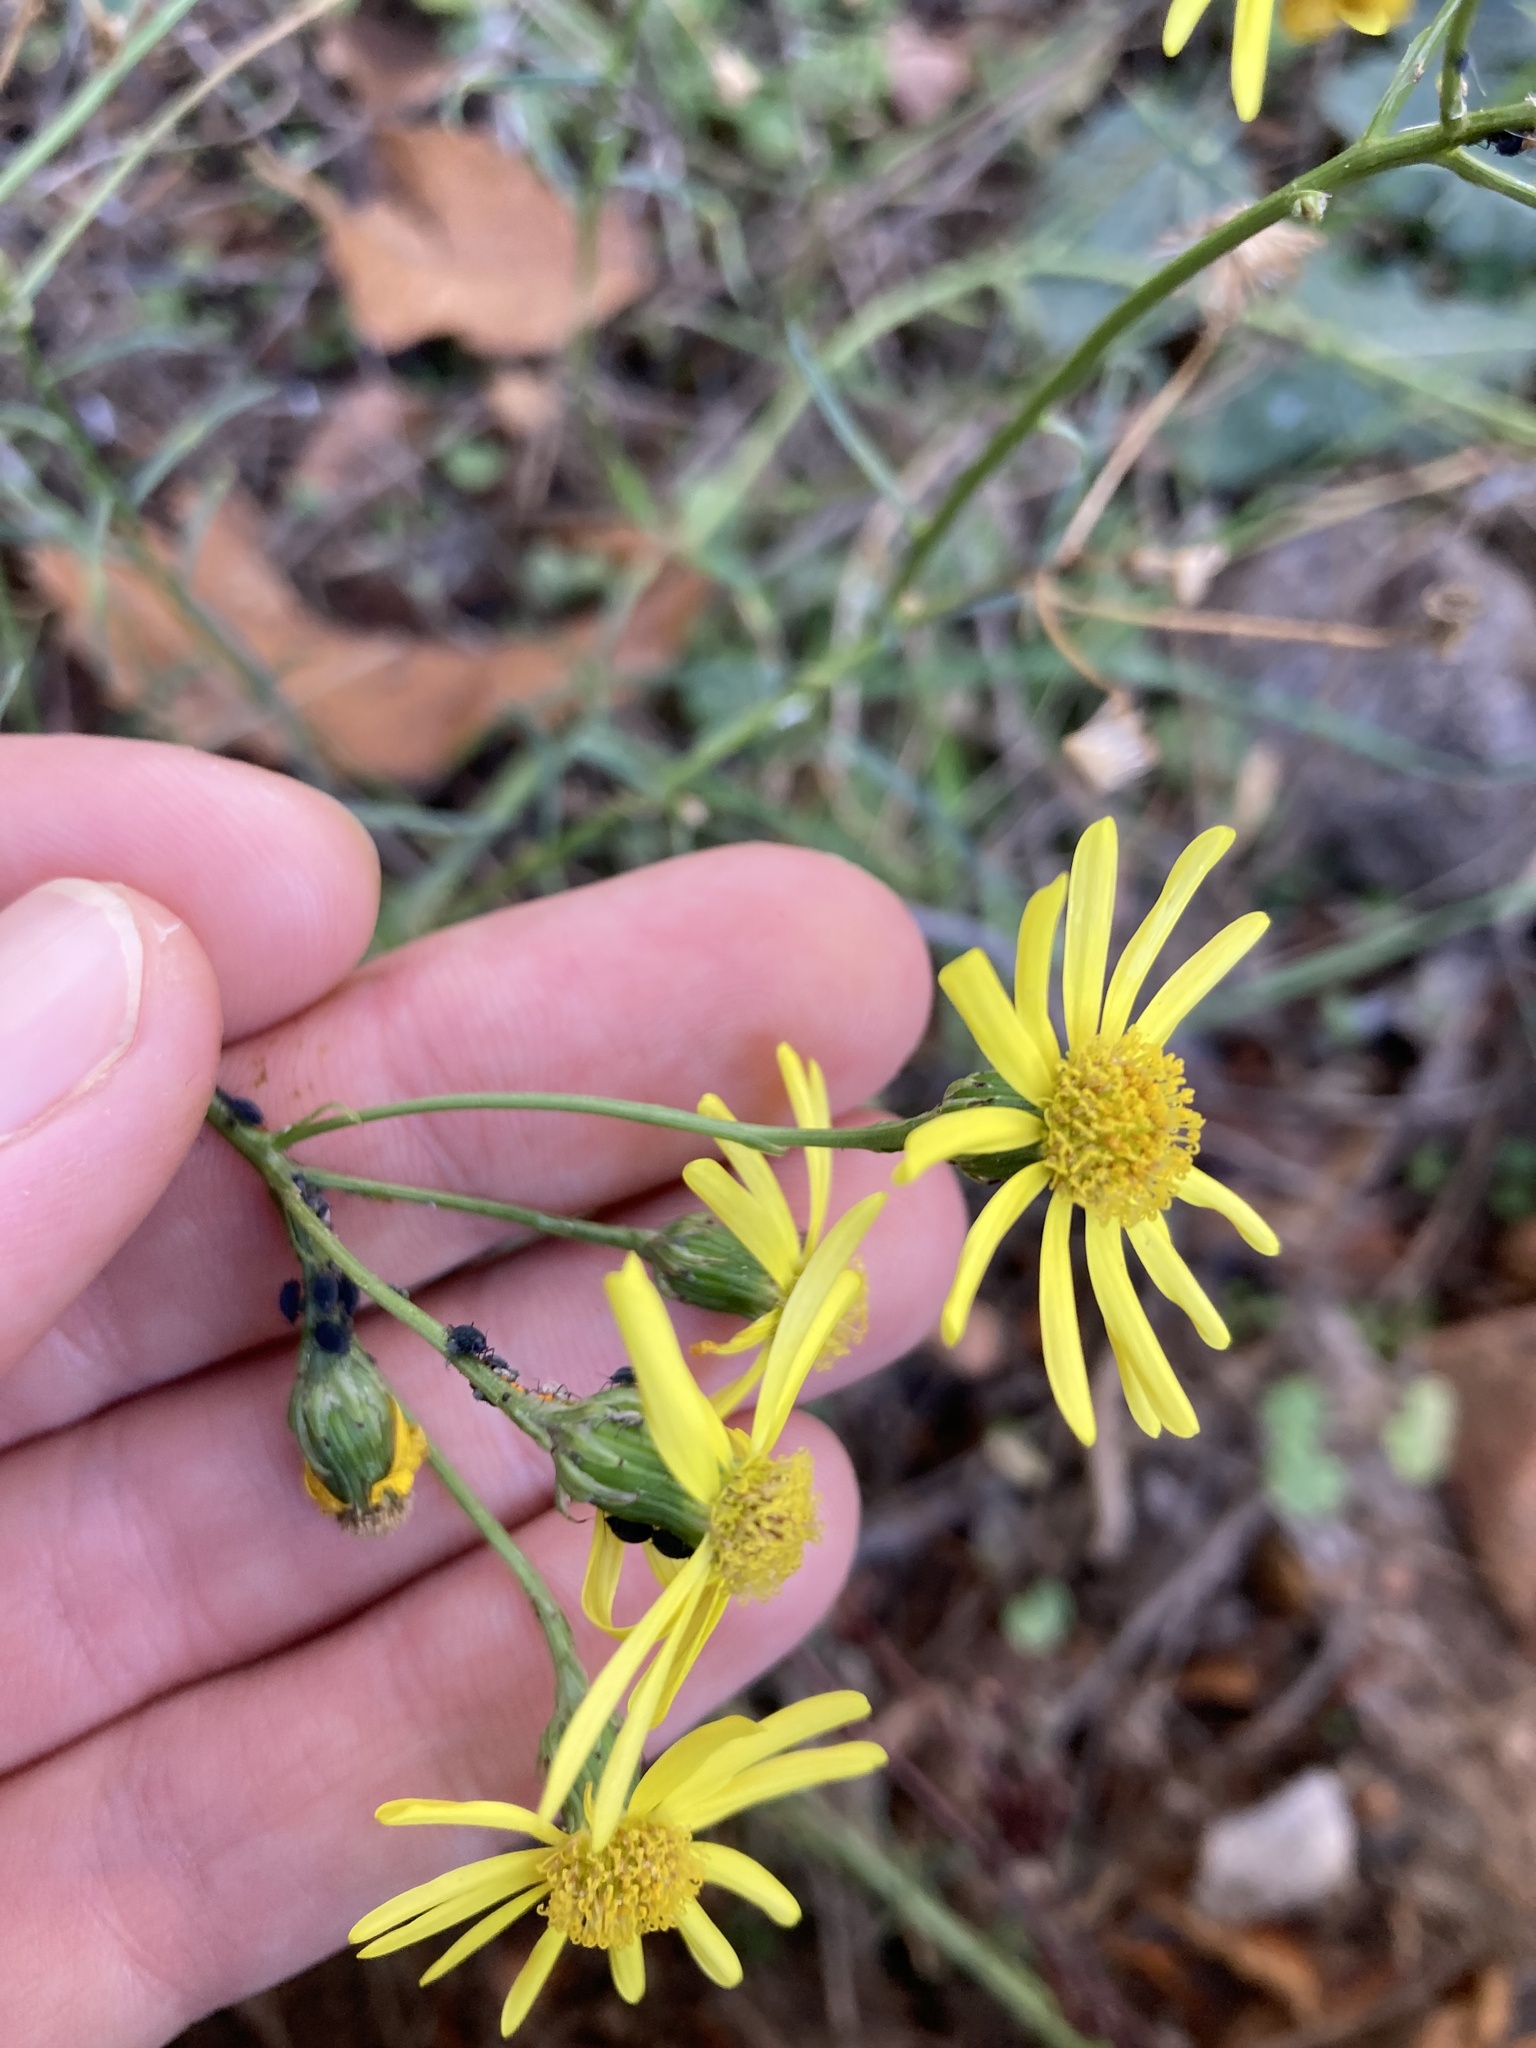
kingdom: Plantae
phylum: Tracheophyta
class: Magnoliopsida
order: Asterales
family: Asteraceae
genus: Senecio
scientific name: Senecio inaequidens
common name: Narrow-leaved ragwort
